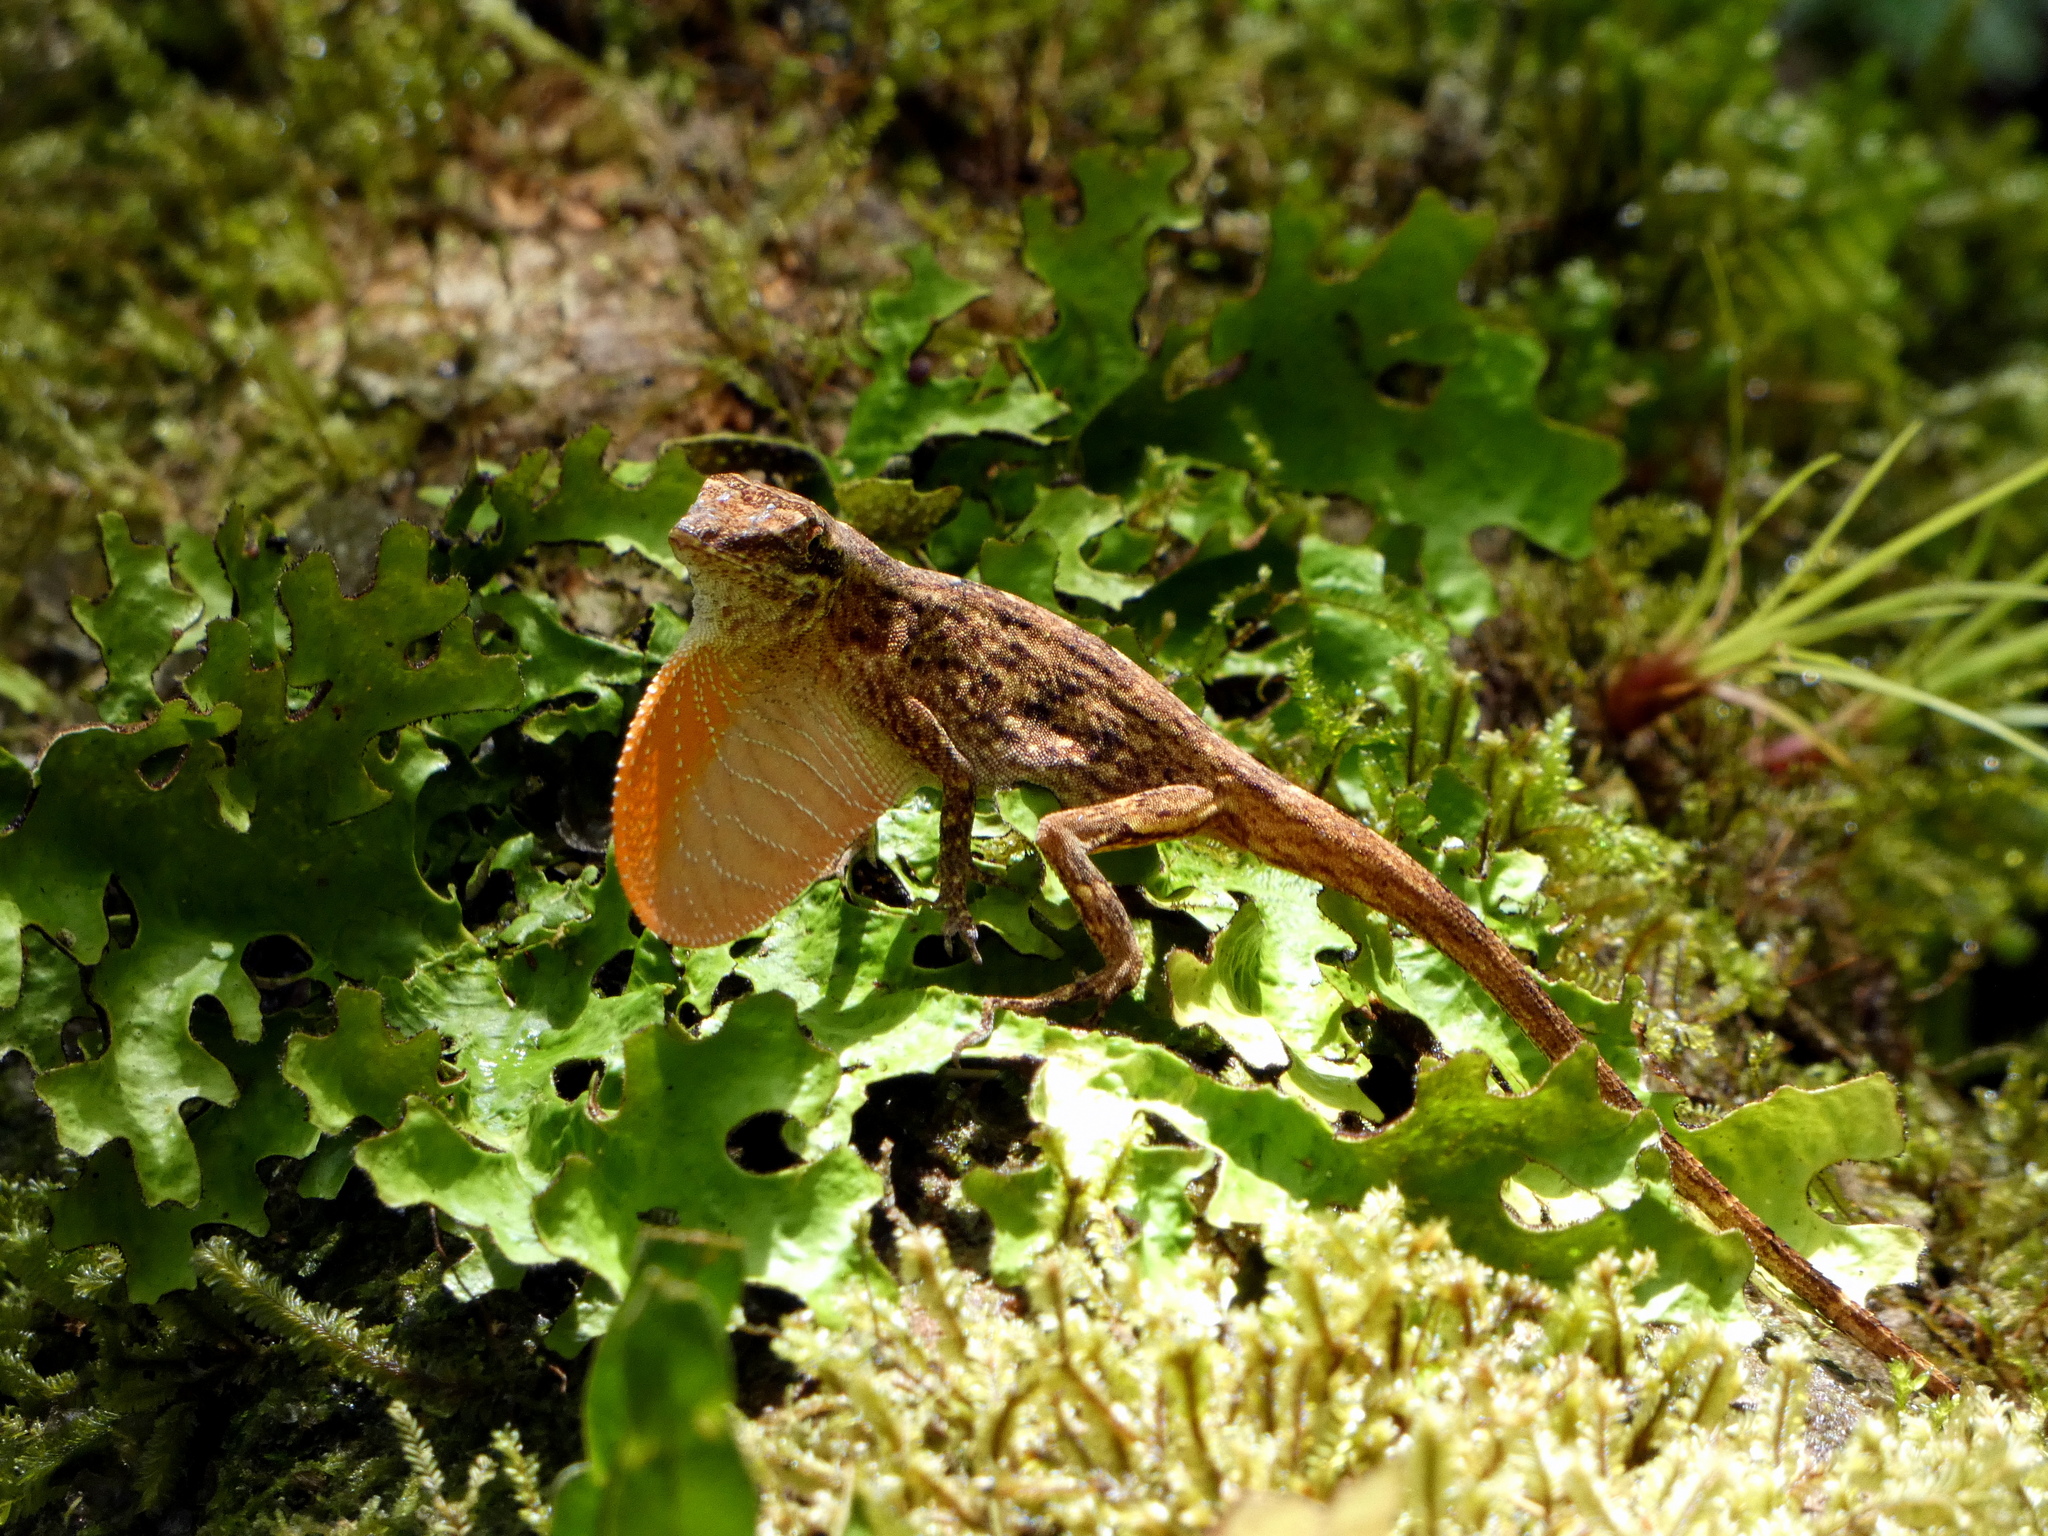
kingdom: Animalia
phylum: Chordata
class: Squamata
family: Dactyloidae
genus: Anolis
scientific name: Anolis polylepis
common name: Many-scaled anole
